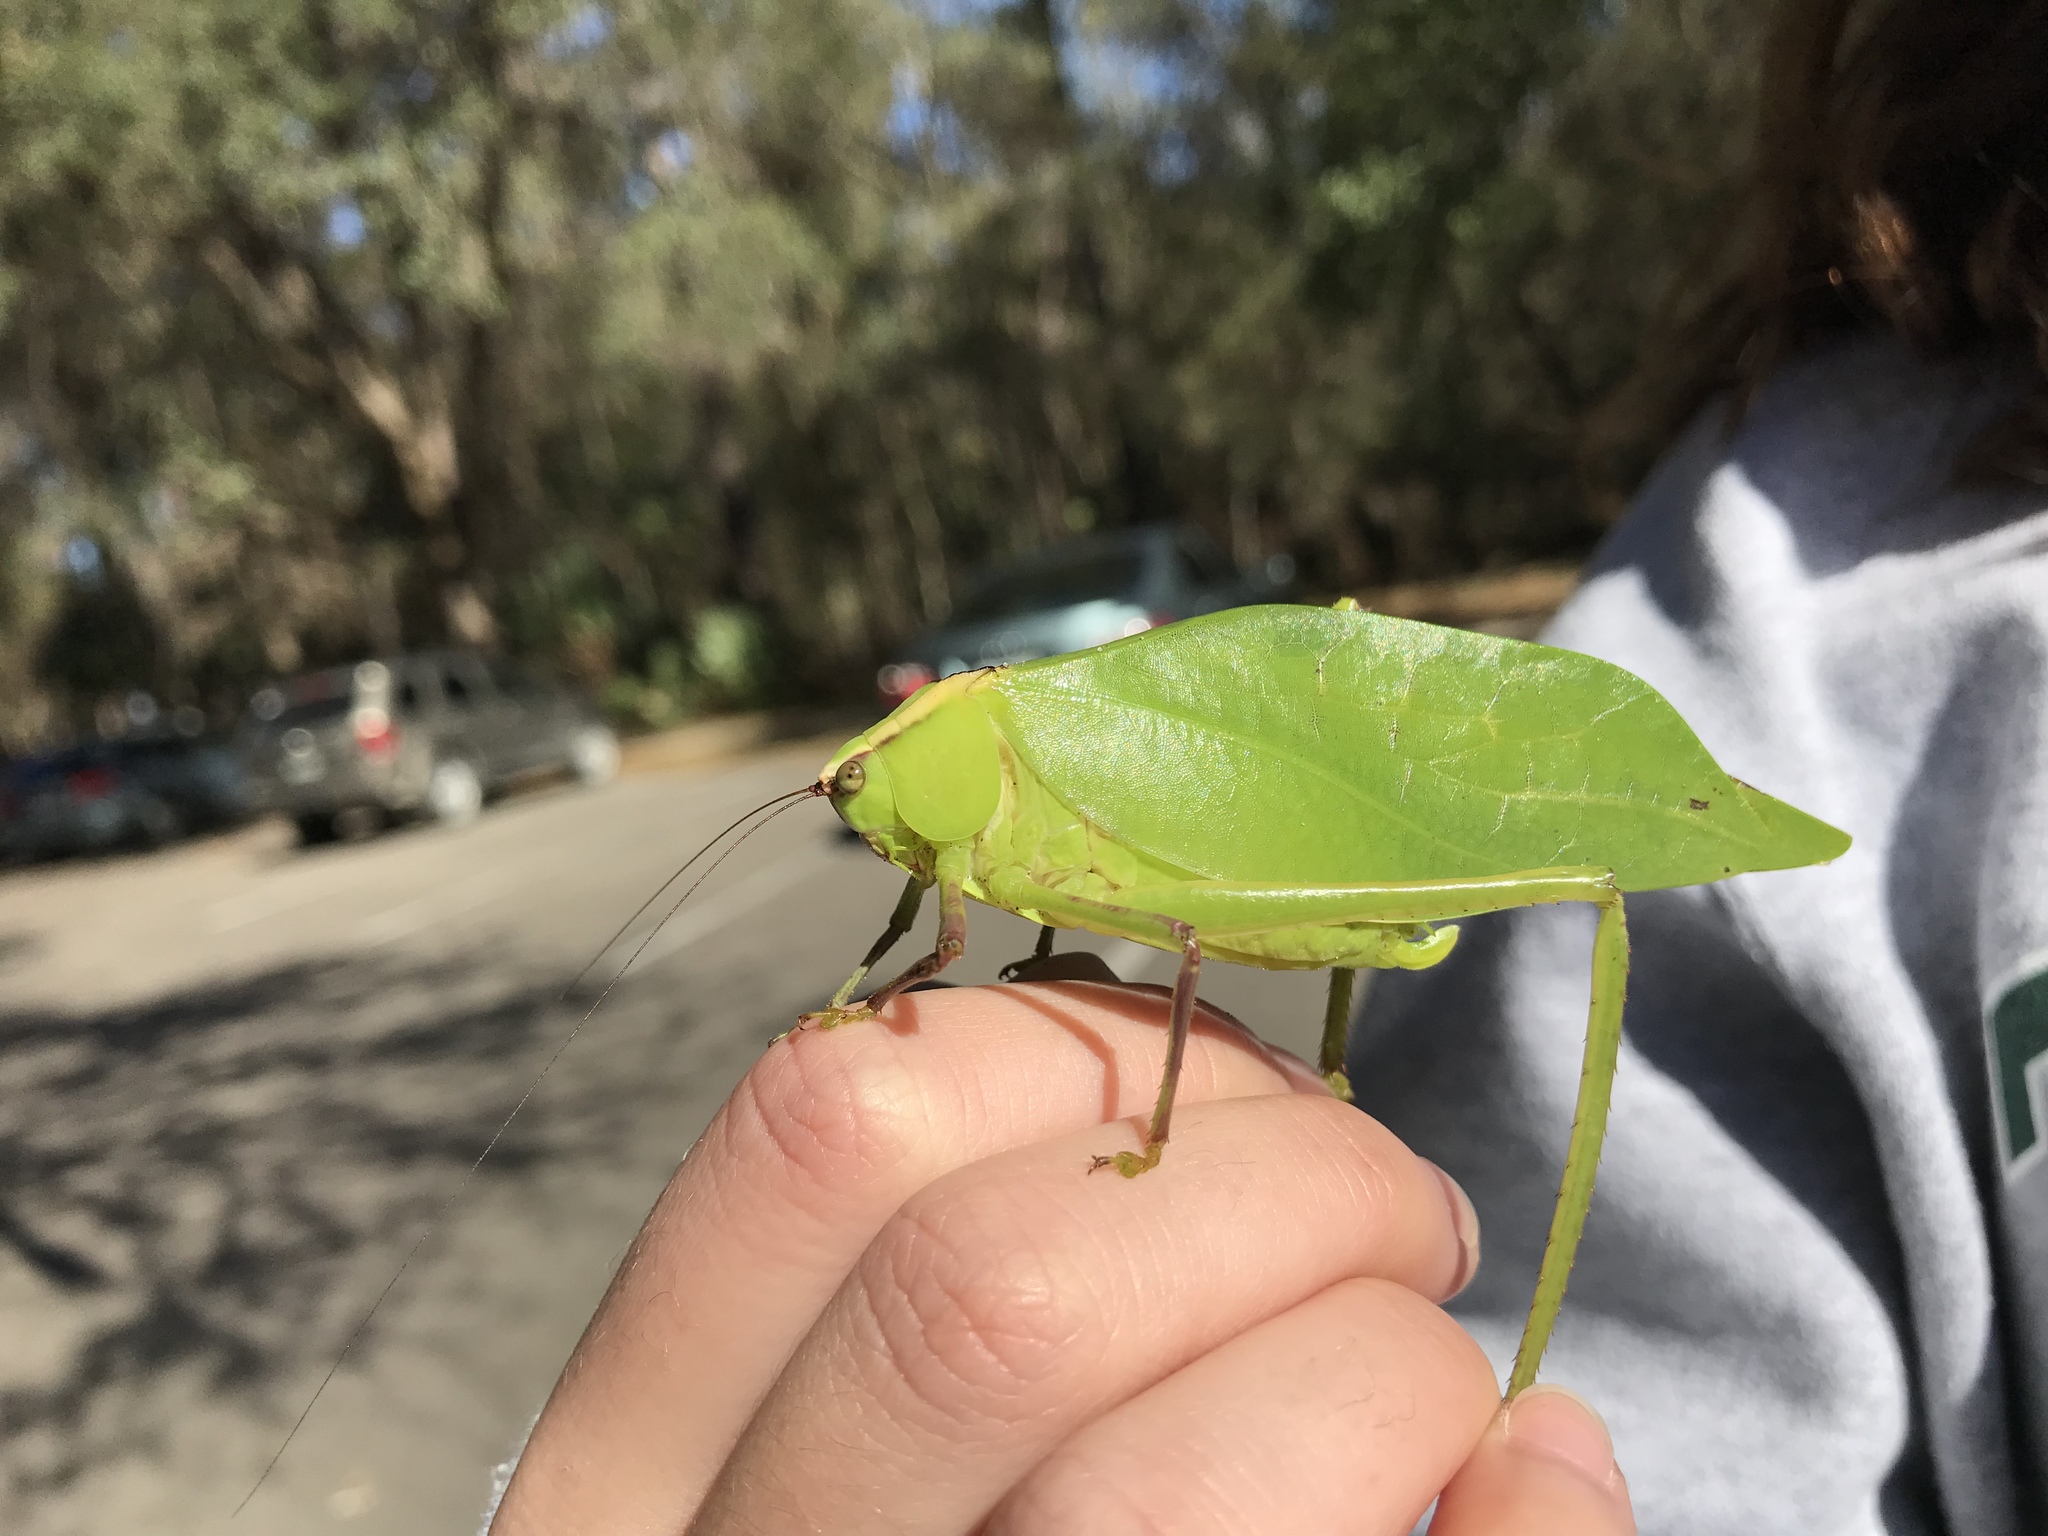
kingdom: Animalia
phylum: Arthropoda
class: Insecta
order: Orthoptera
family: Tettigoniidae
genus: Stilpnochlora
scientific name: Stilpnochlora couloniana
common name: Giant katydid
